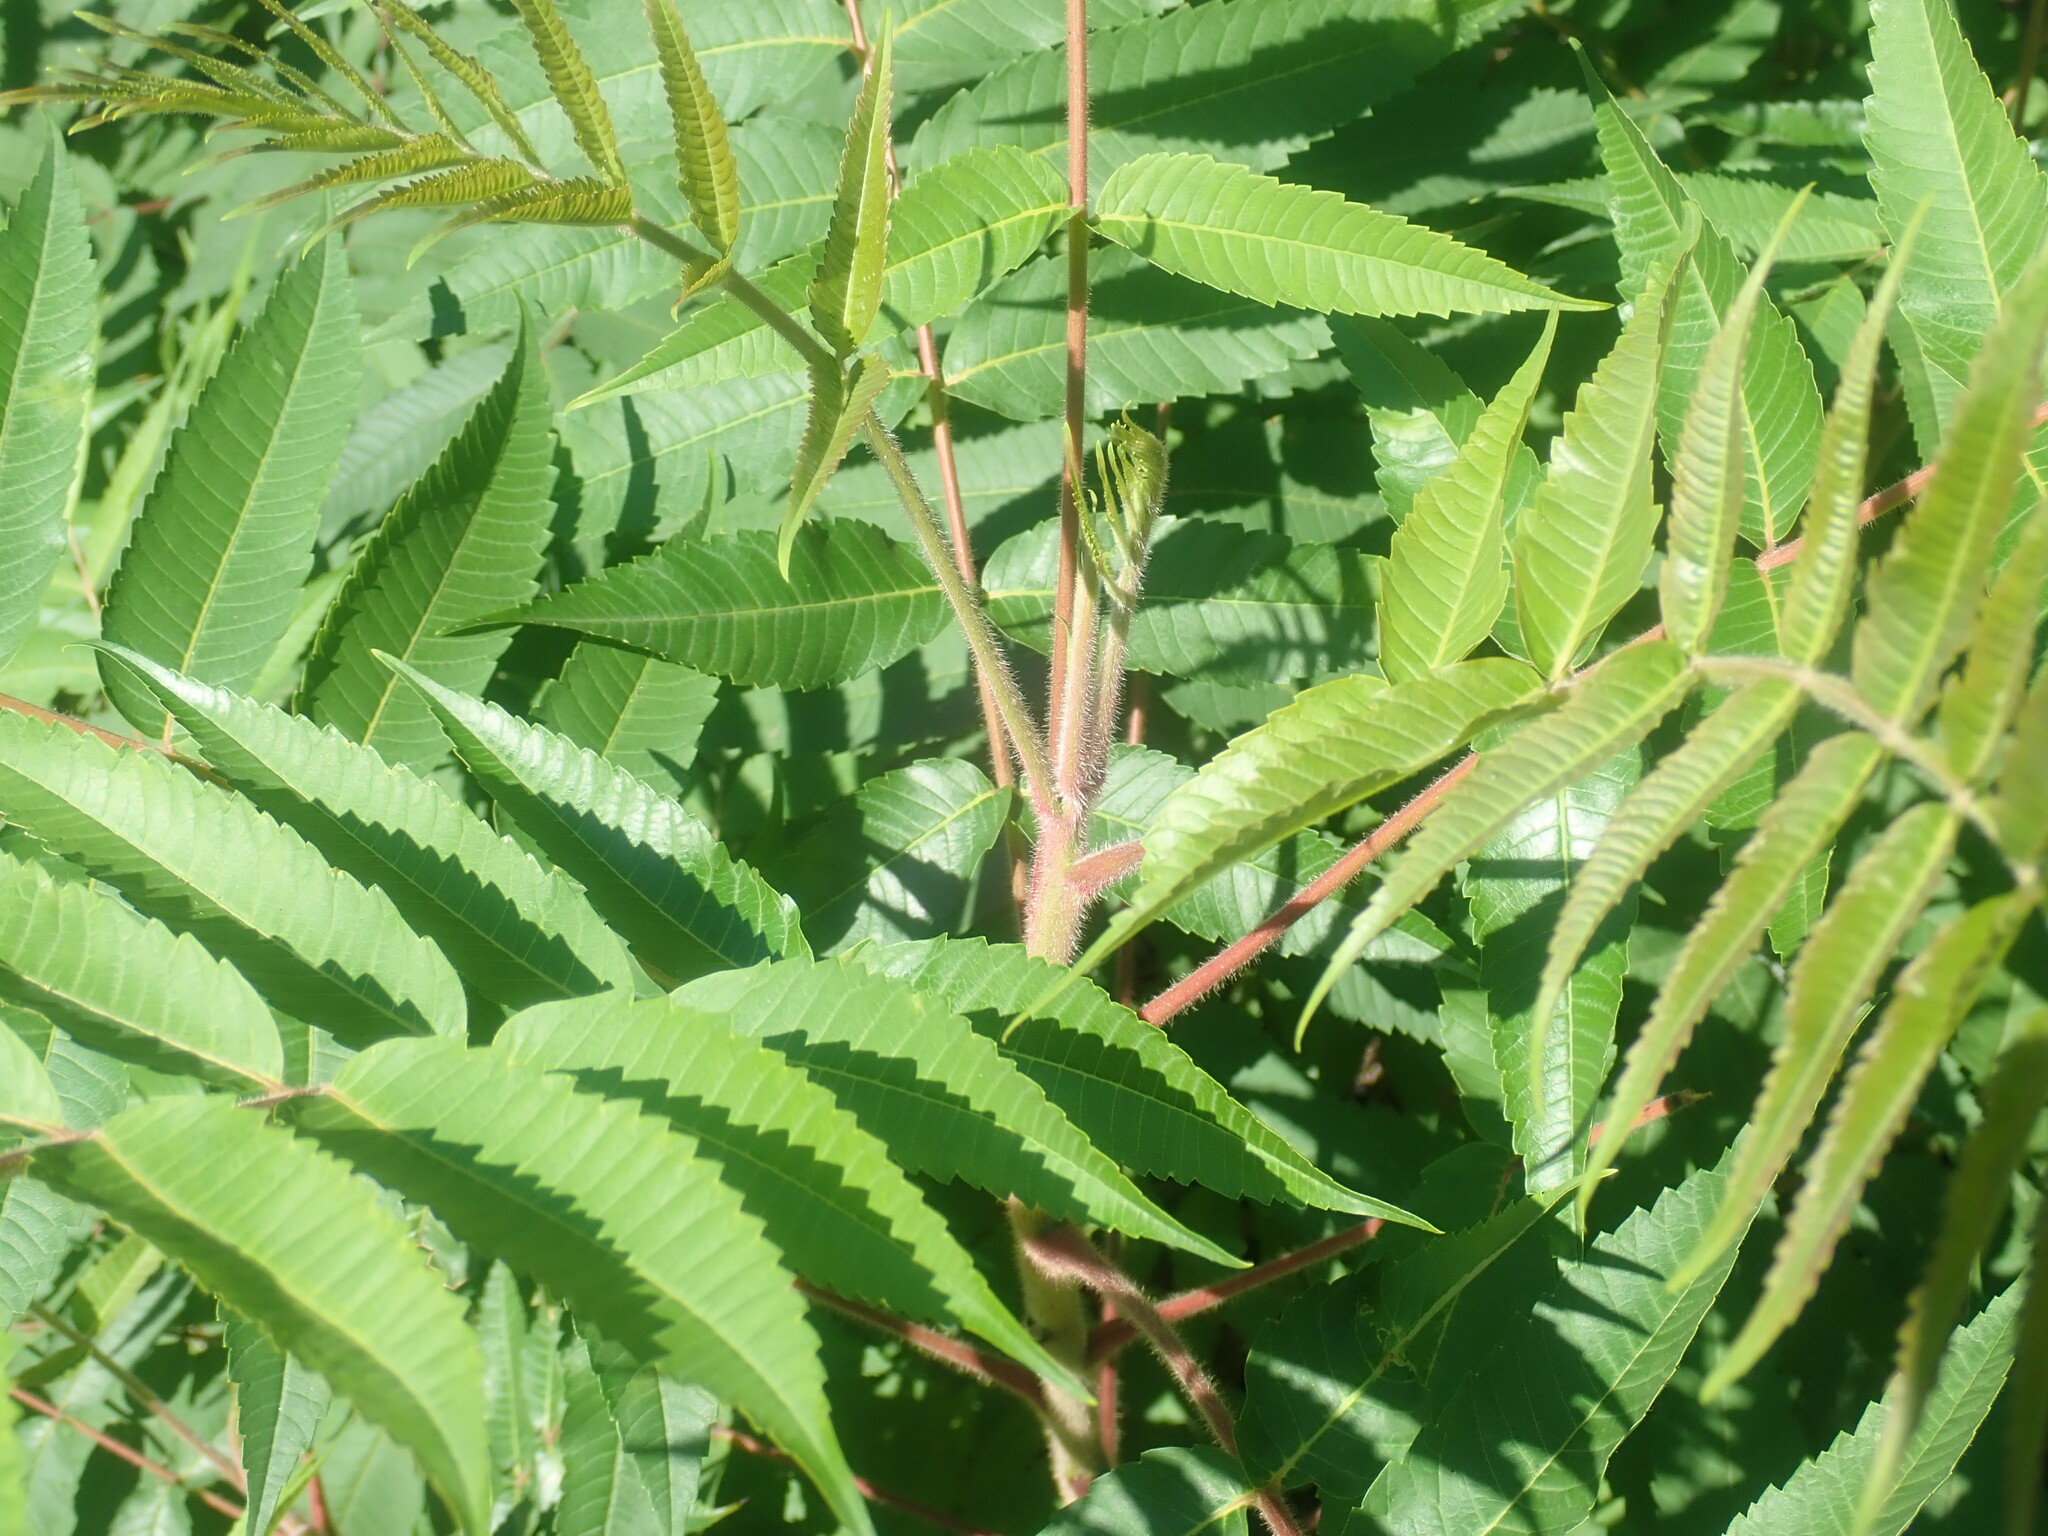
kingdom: Plantae
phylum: Tracheophyta
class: Magnoliopsida
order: Sapindales
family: Anacardiaceae
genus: Rhus
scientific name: Rhus typhina
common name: Staghorn sumac
